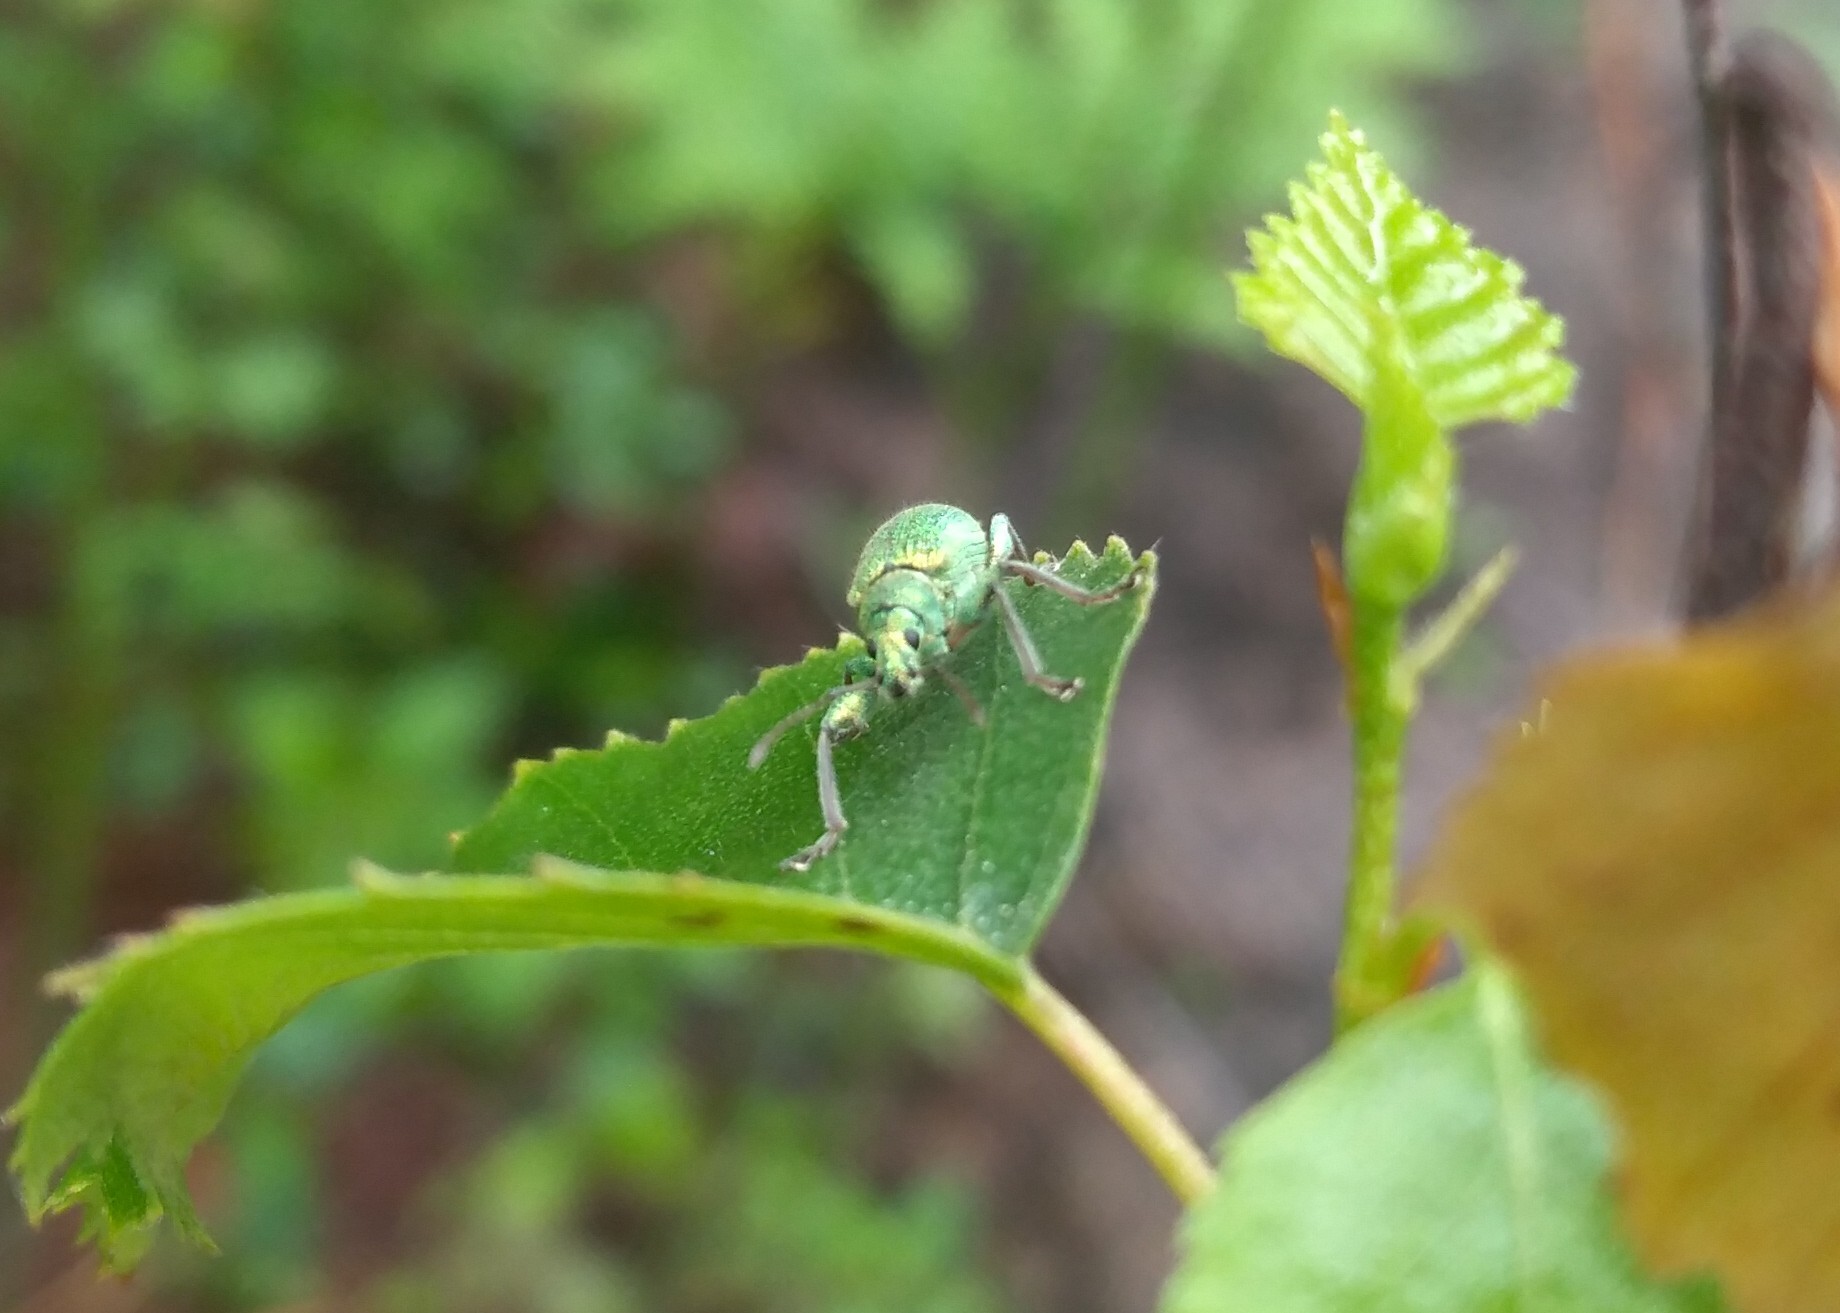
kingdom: Animalia
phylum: Arthropoda
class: Insecta
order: Coleoptera
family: Curculionidae
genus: Phyllobius
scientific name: Phyllobius arborator
